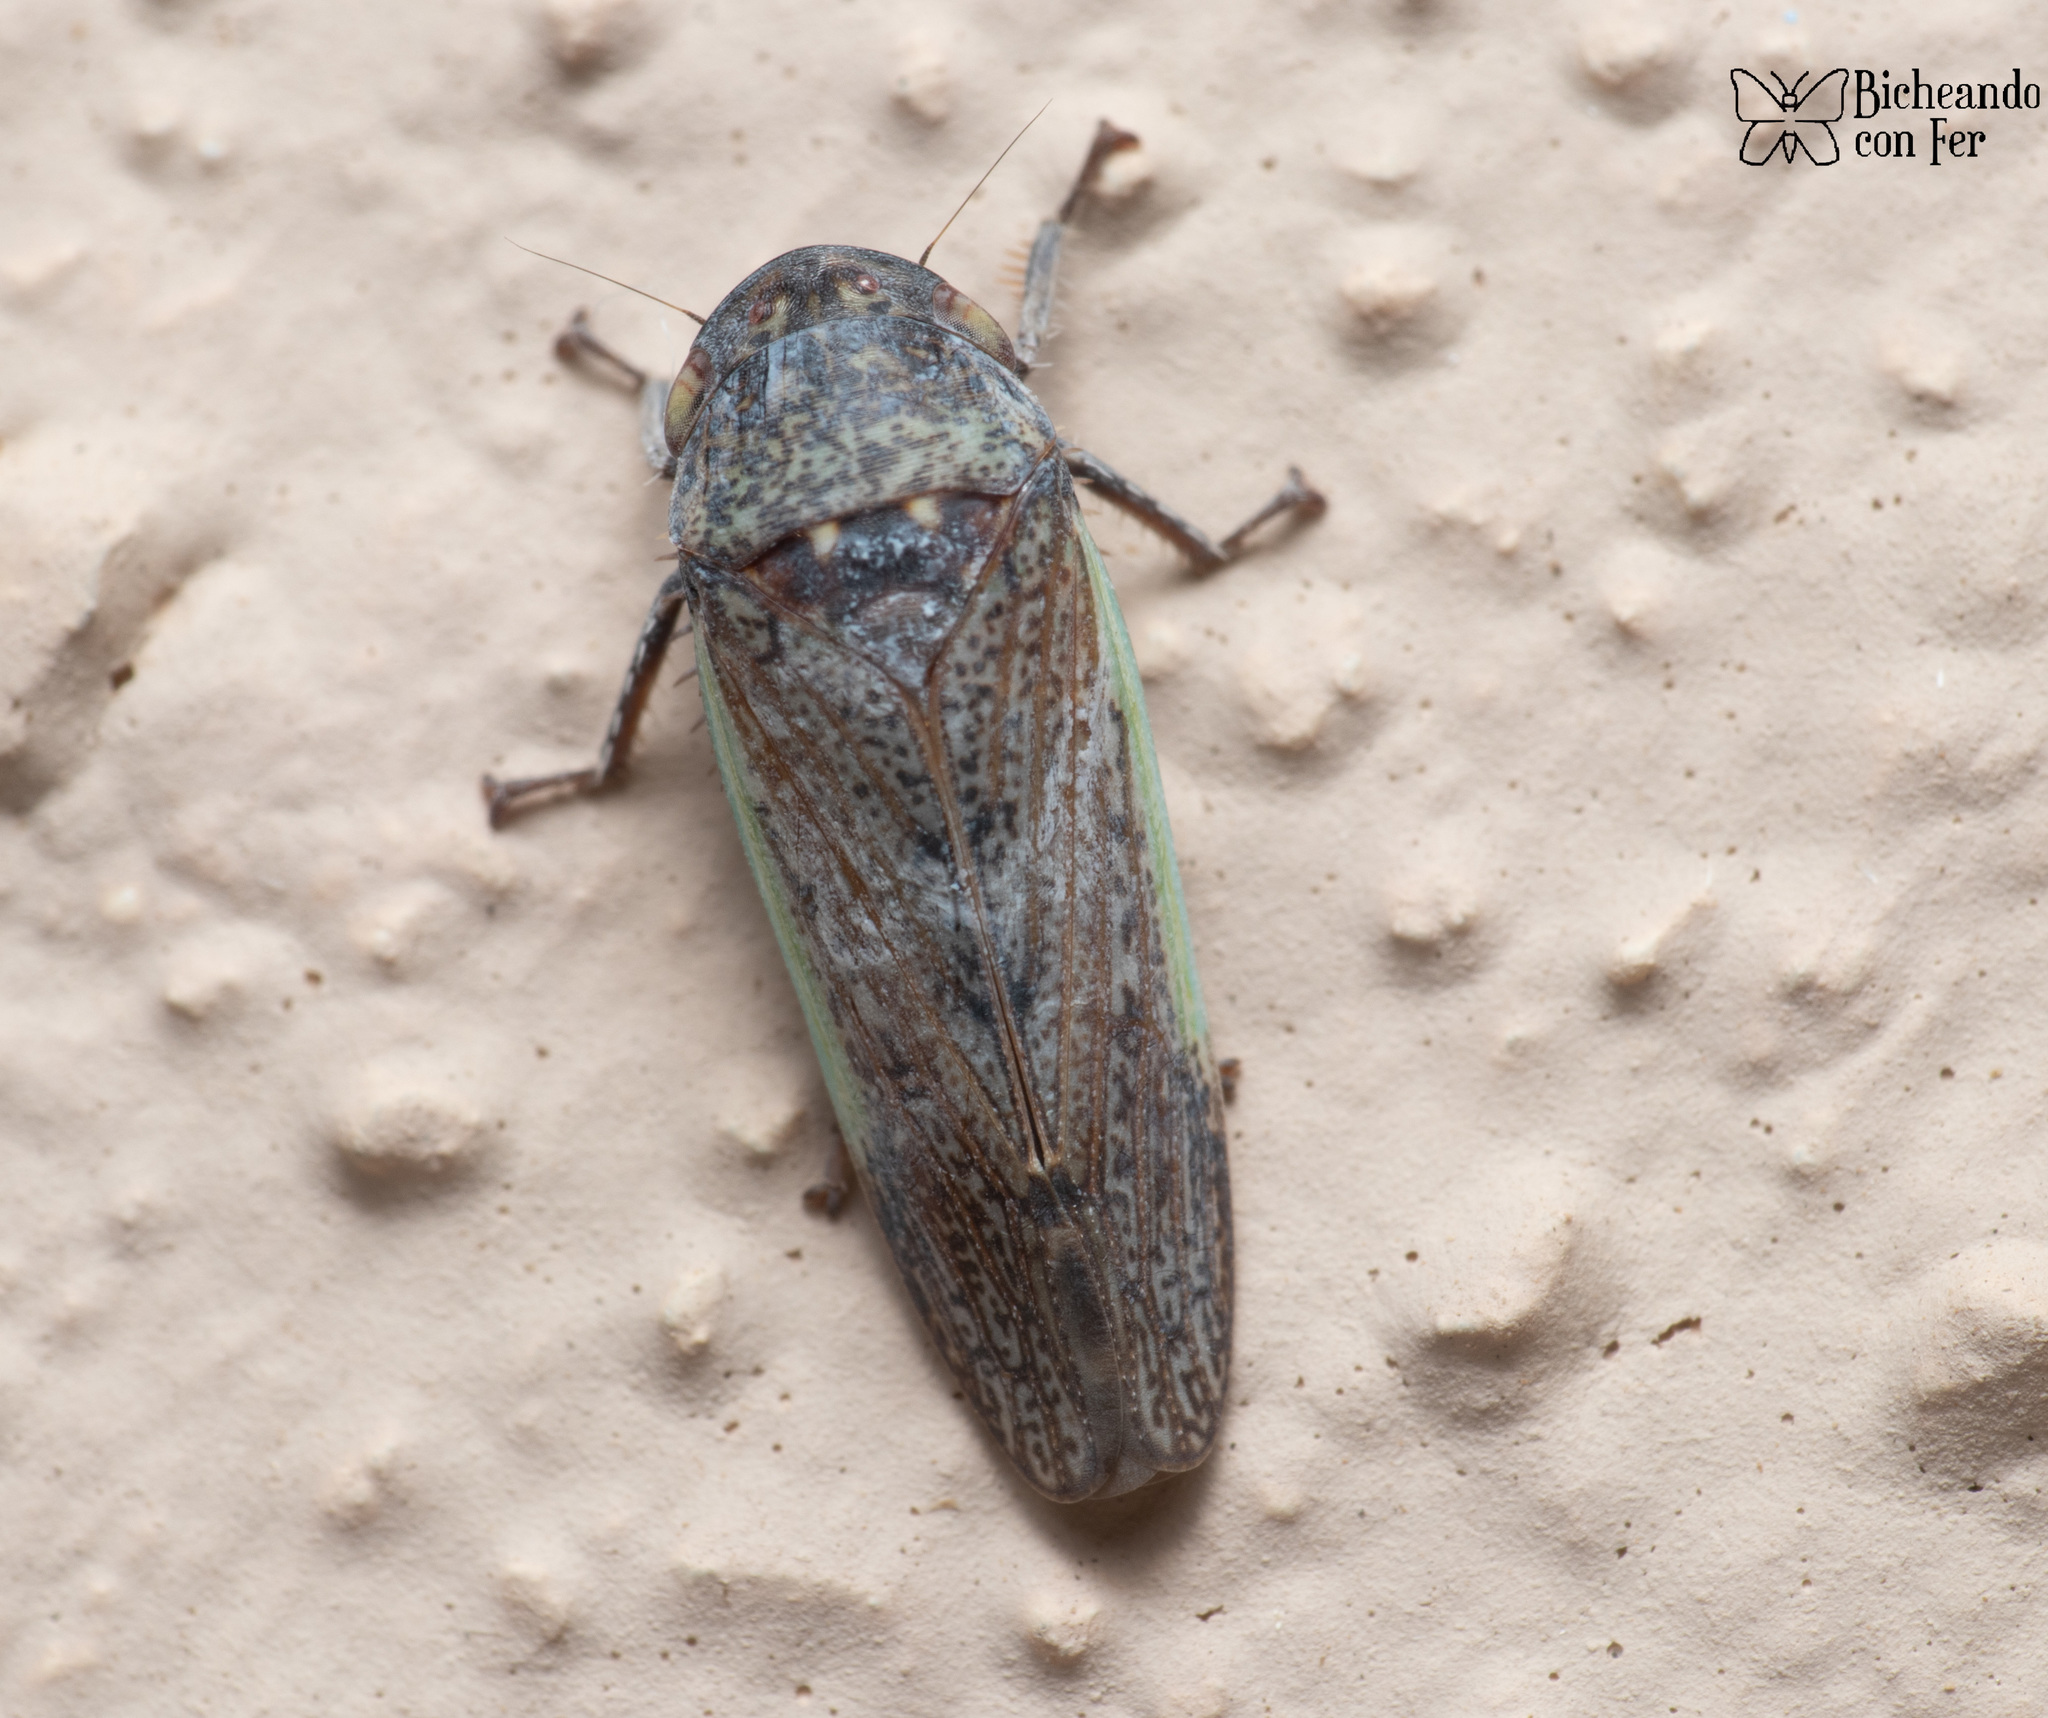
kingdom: Animalia
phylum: Arthropoda
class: Insecta
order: Hemiptera
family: Cicadellidae
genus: Hamana
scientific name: Hamana gelbata
